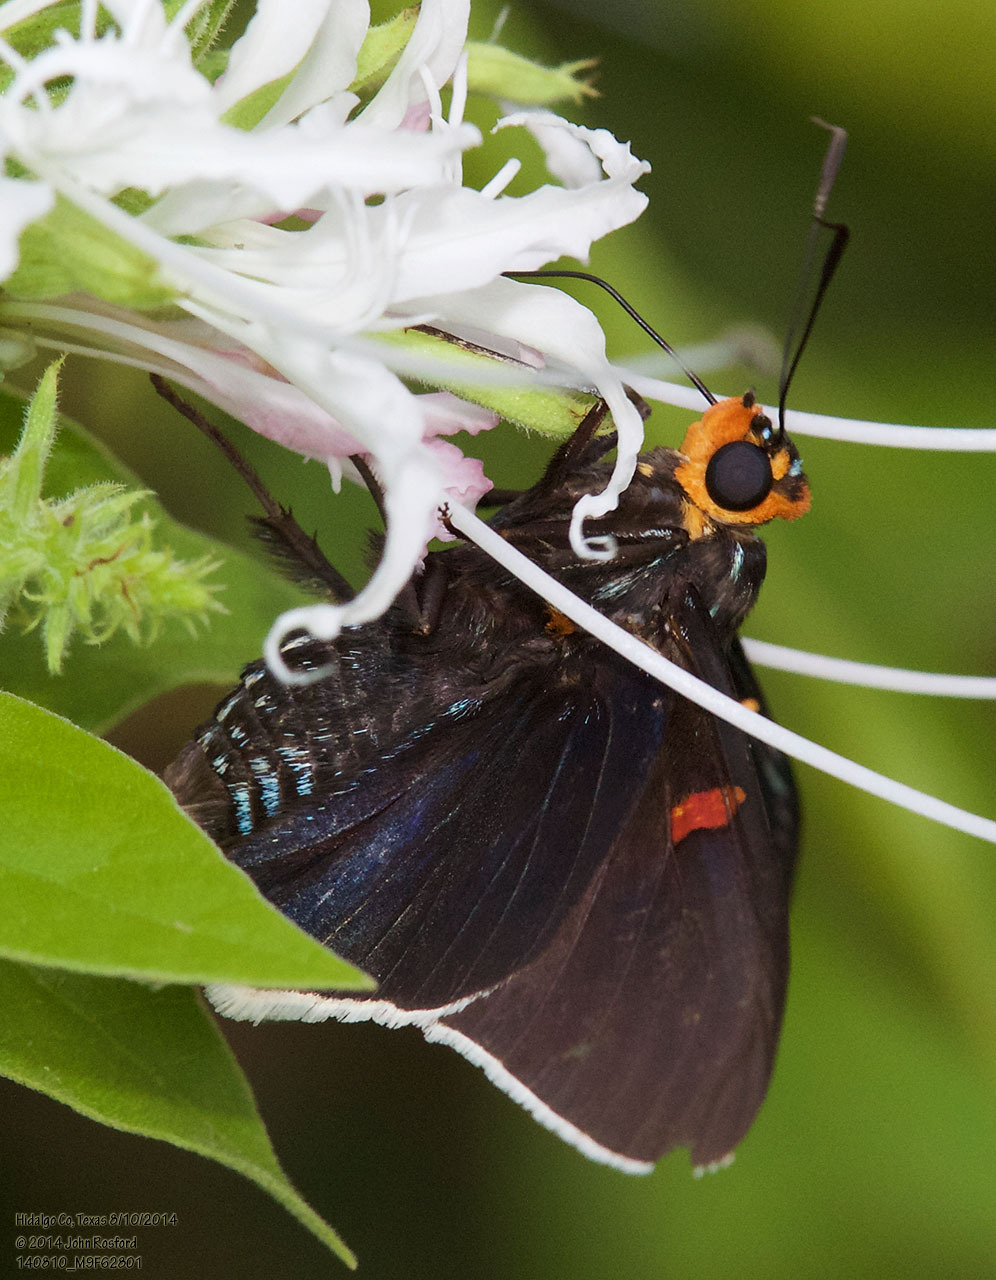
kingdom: Animalia
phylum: Arthropoda
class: Insecta
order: Lepidoptera
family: Hesperiidae
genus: Phocides
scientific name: Phocides lilea
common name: Guava skipper
